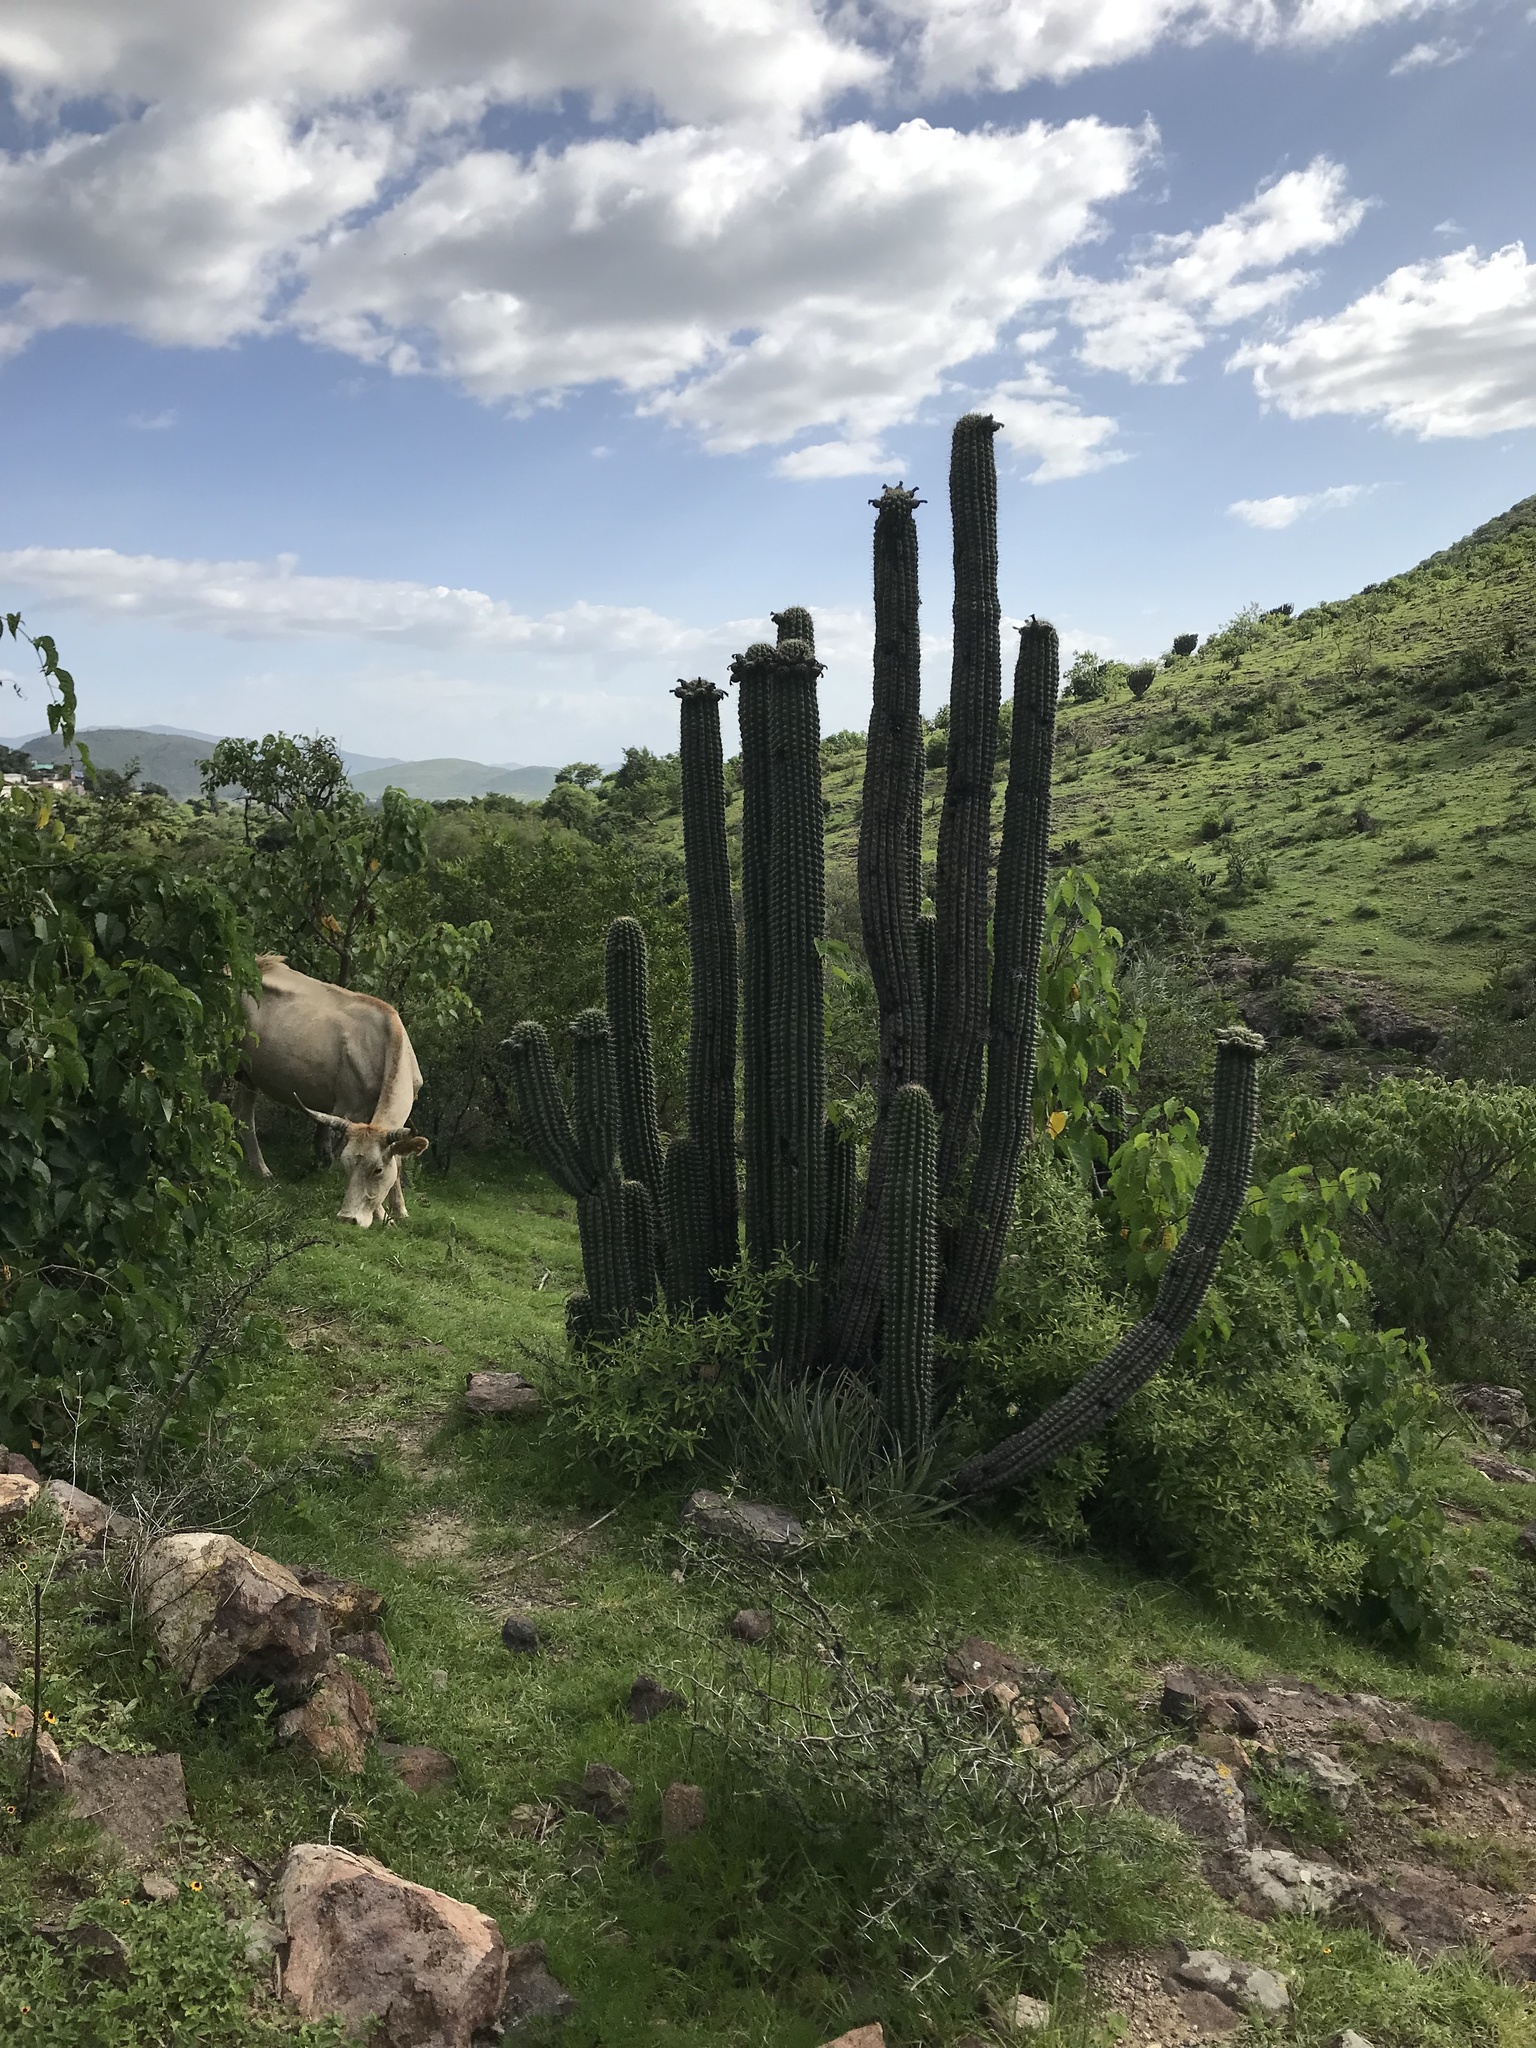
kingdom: Plantae
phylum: Tracheophyta
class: Magnoliopsida
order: Caryophyllales
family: Cactaceae
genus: Stenocereus
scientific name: Stenocereus treleasei
